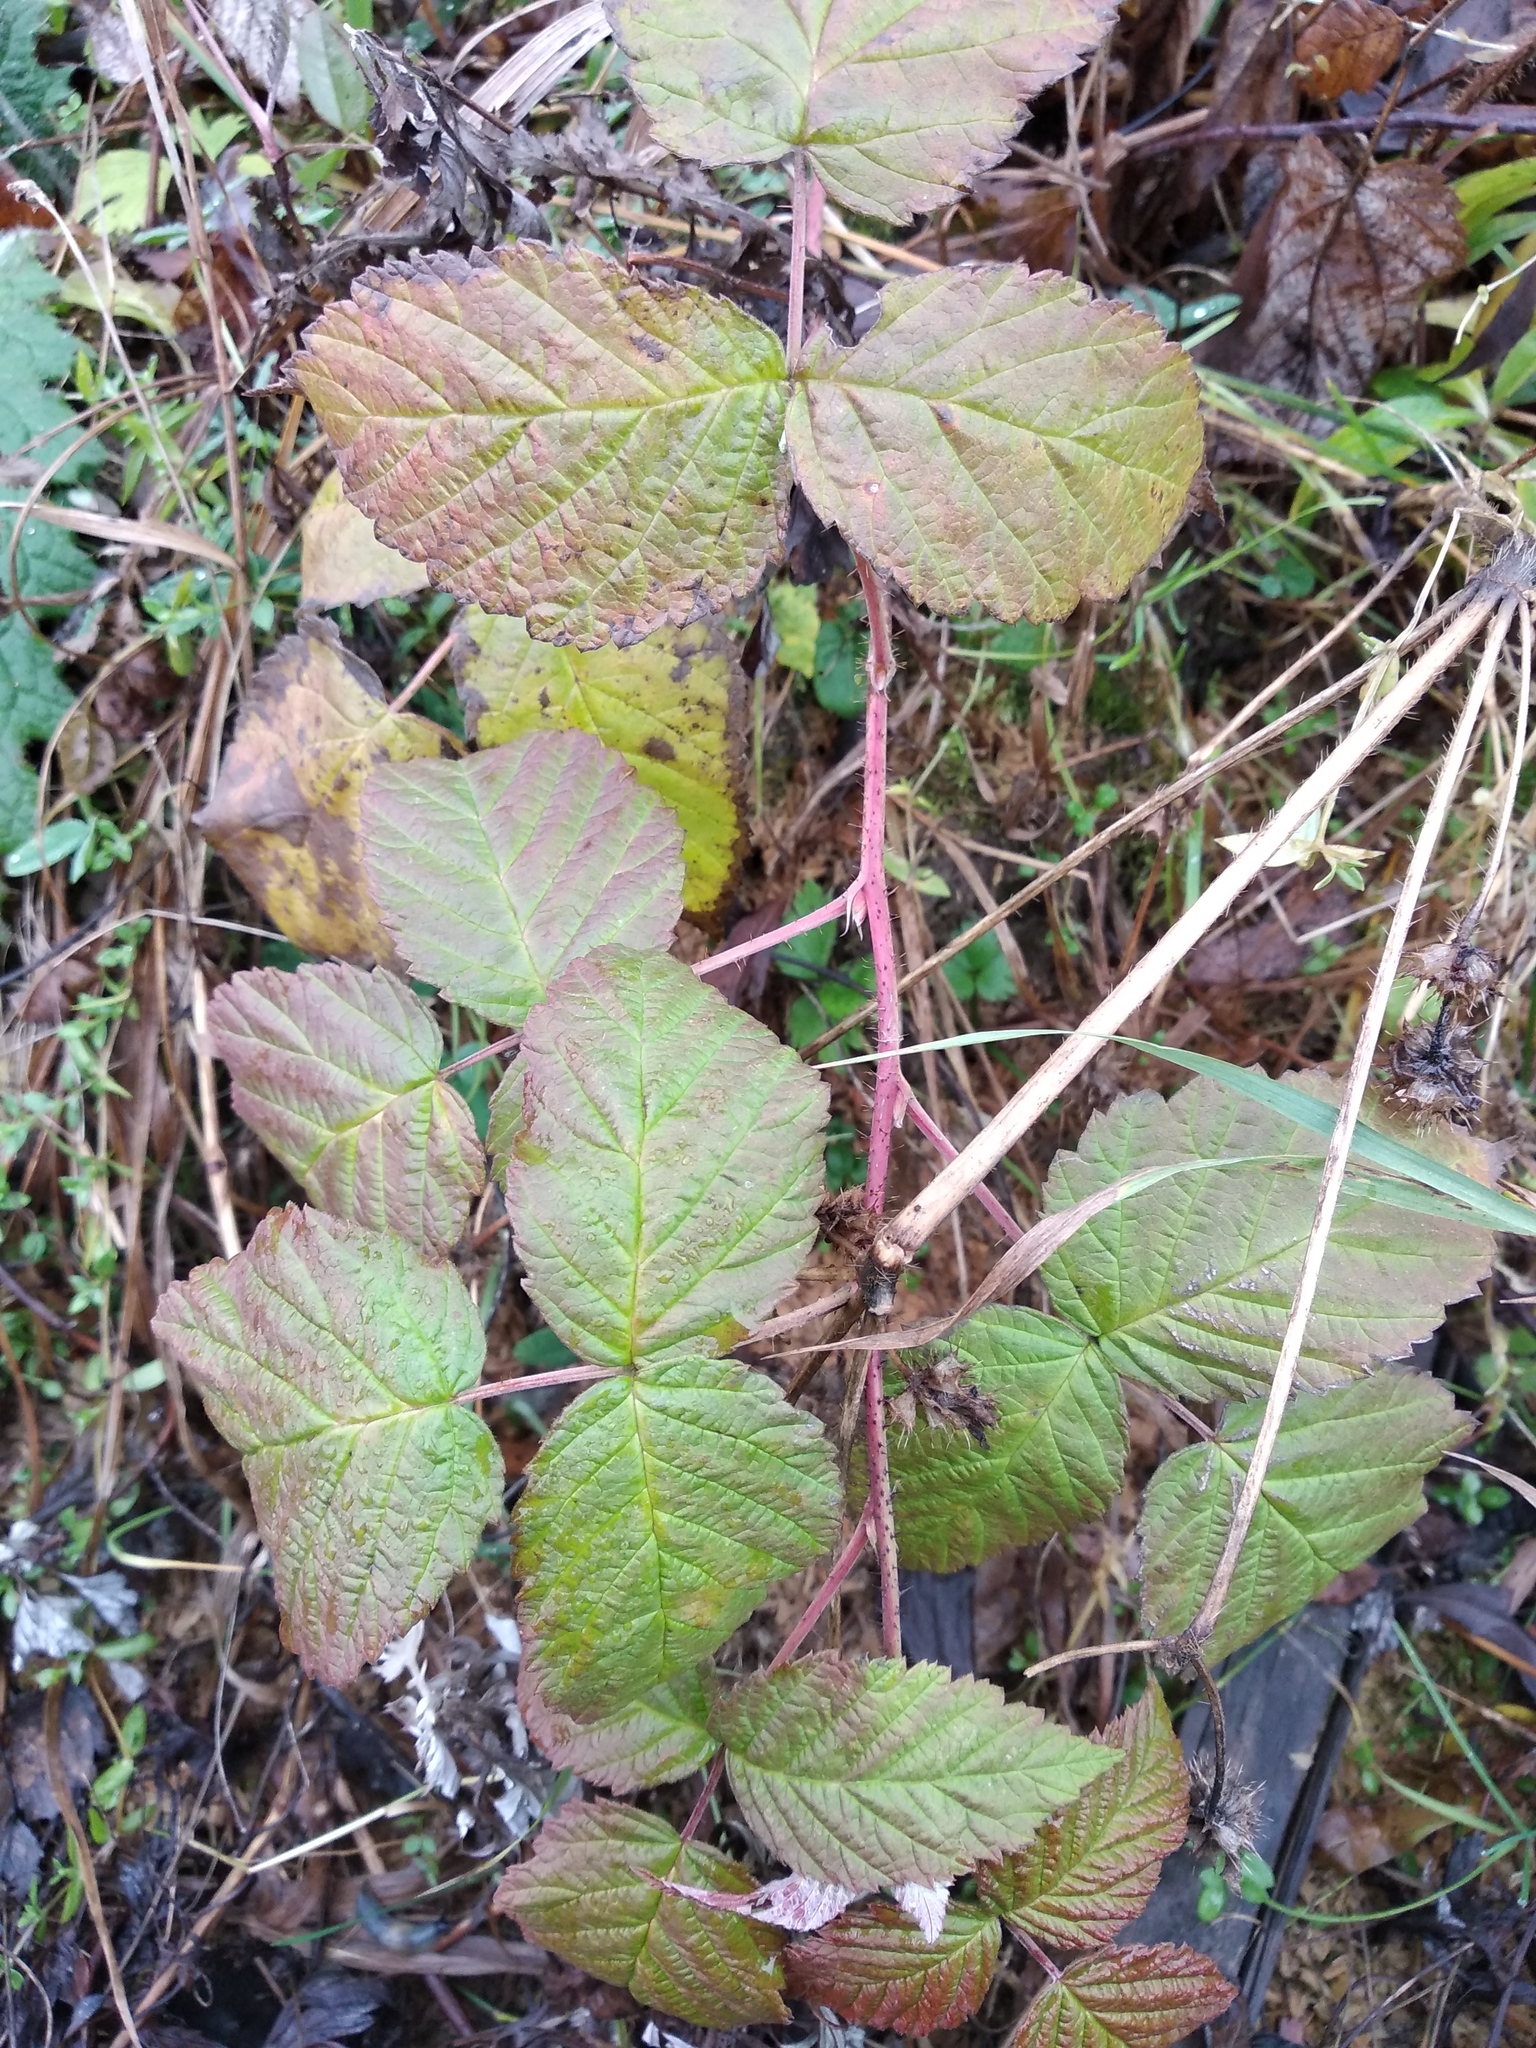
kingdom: Plantae
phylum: Tracheophyta
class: Magnoliopsida
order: Rosales
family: Rosaceae
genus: Rubus
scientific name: Rubus idaeus
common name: Raspberry
